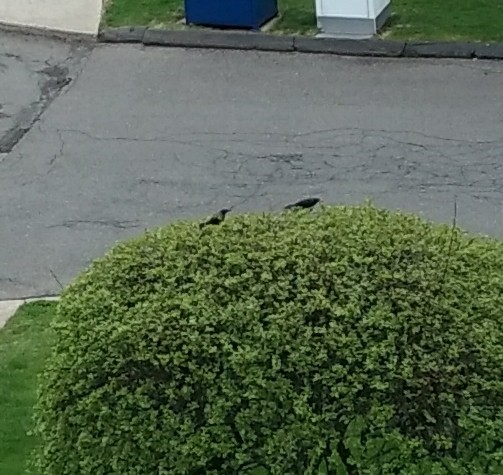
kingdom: Animalia
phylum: Chordata
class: Aves
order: Passeriformes
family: Icteridae
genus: Quiscalus
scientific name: Quiscalus quiscula
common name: Common grackle
